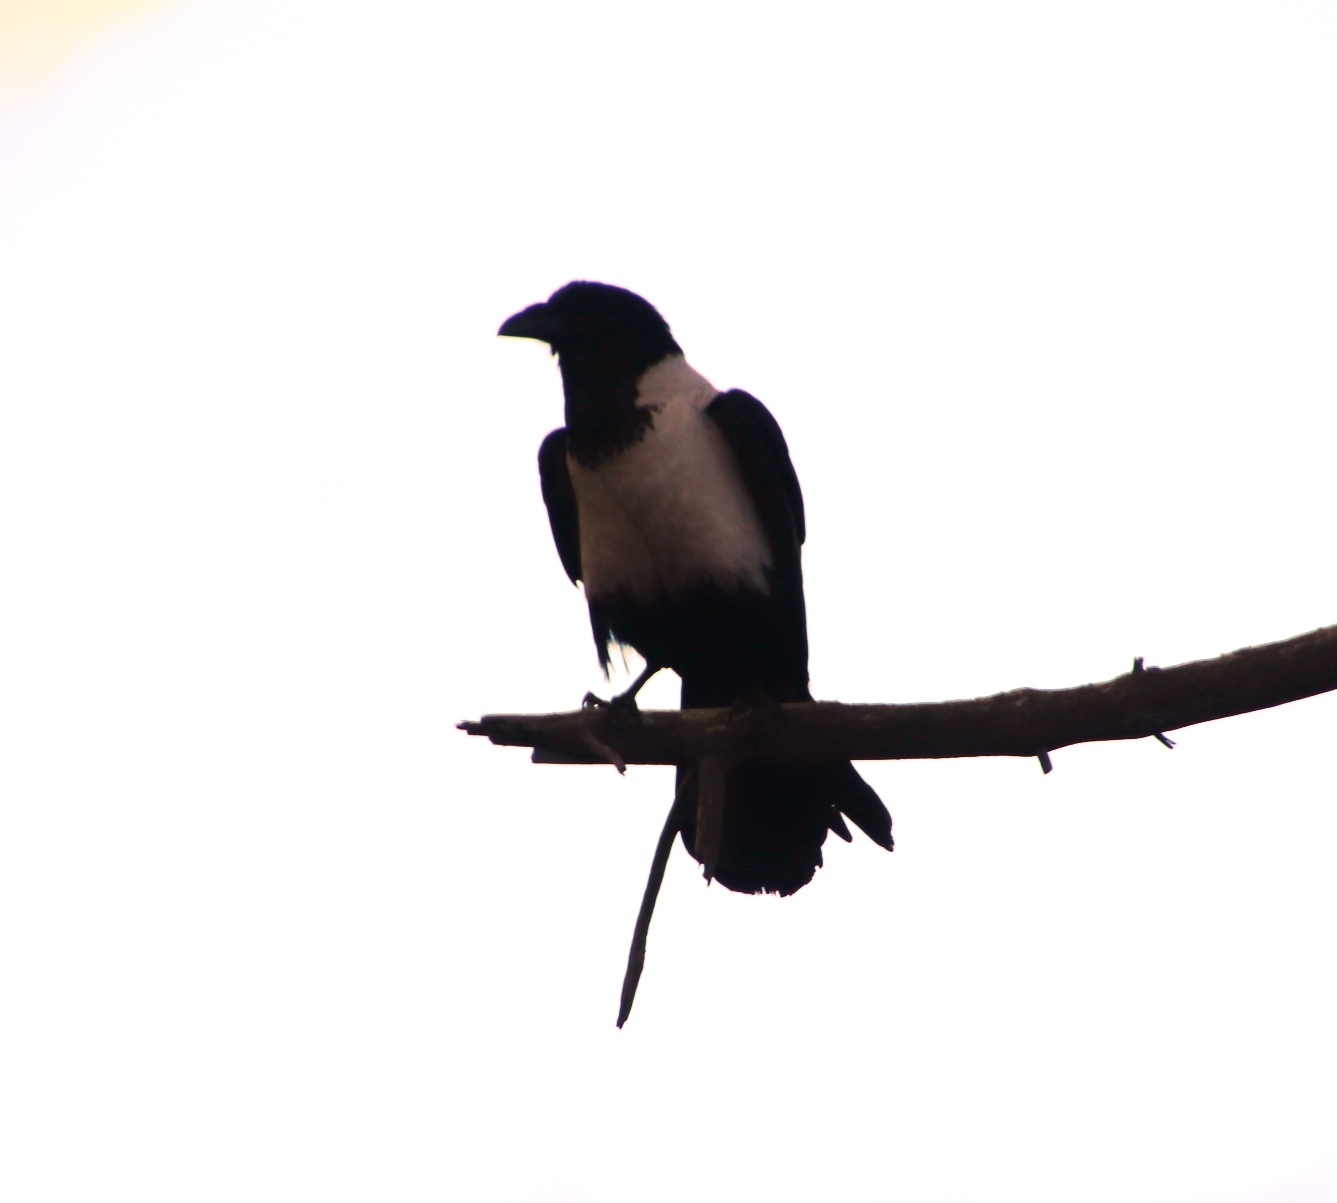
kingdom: Animalia
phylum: Chordata
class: Aves
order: Passeriformes
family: Corvidae
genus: Corvus
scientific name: Corvus albus
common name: Pied crow
